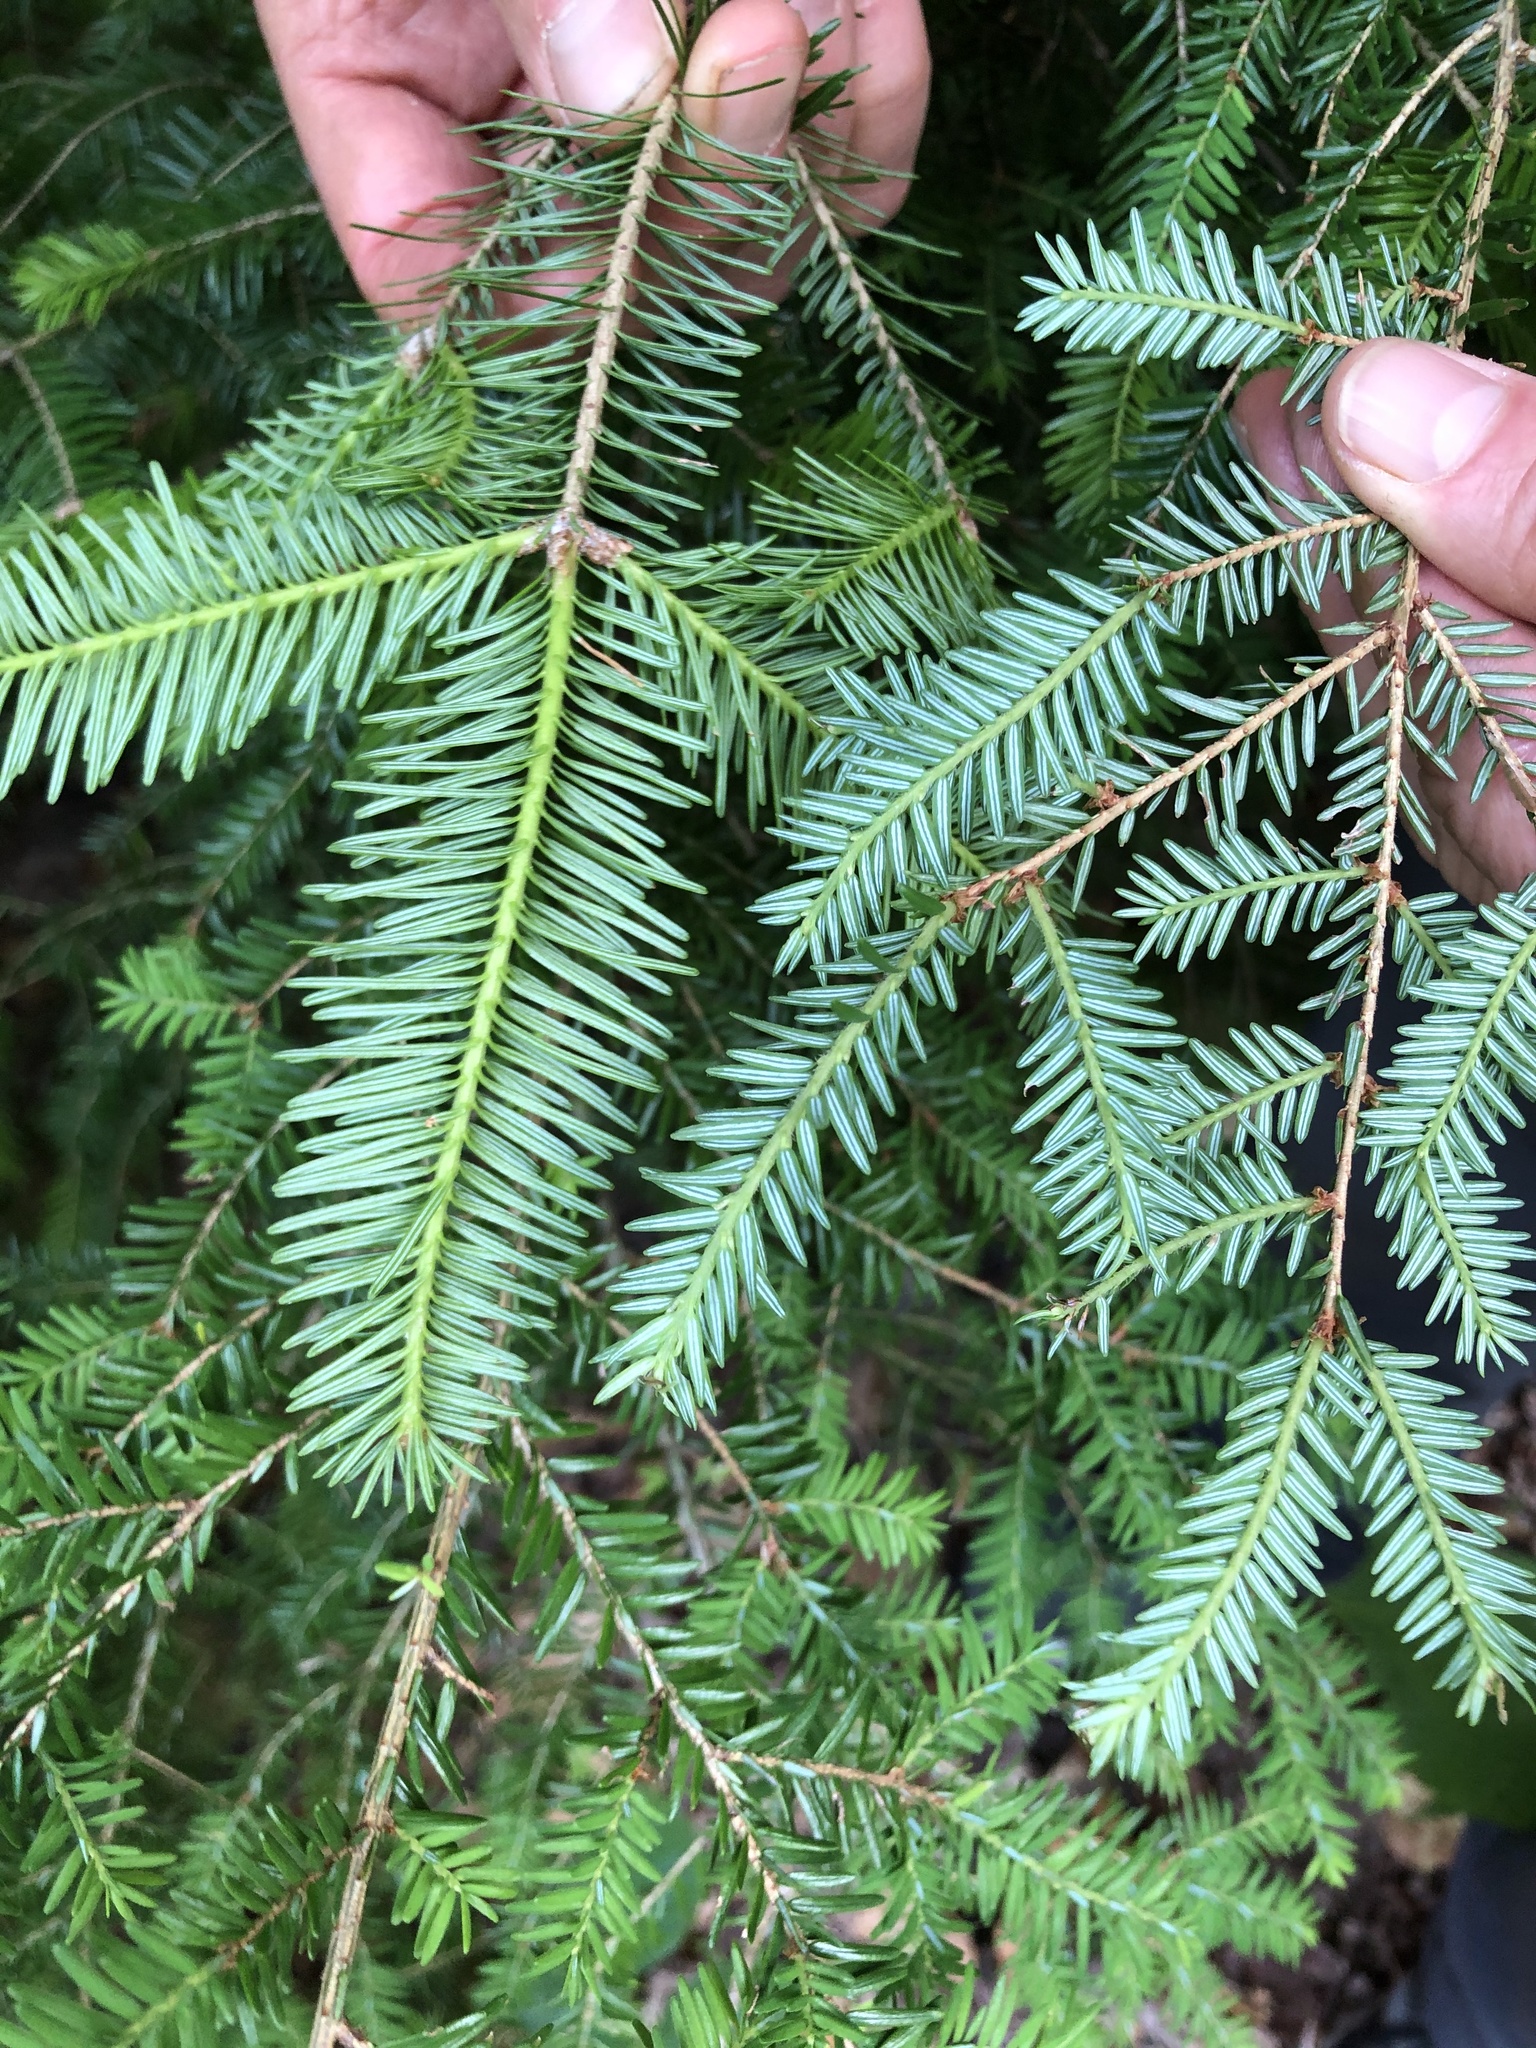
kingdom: Plantae
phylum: Tracheophyta
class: Pinopsida
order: Pinales
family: Pinaceae
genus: Abies
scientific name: Abies balsamea
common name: Balsam fir
